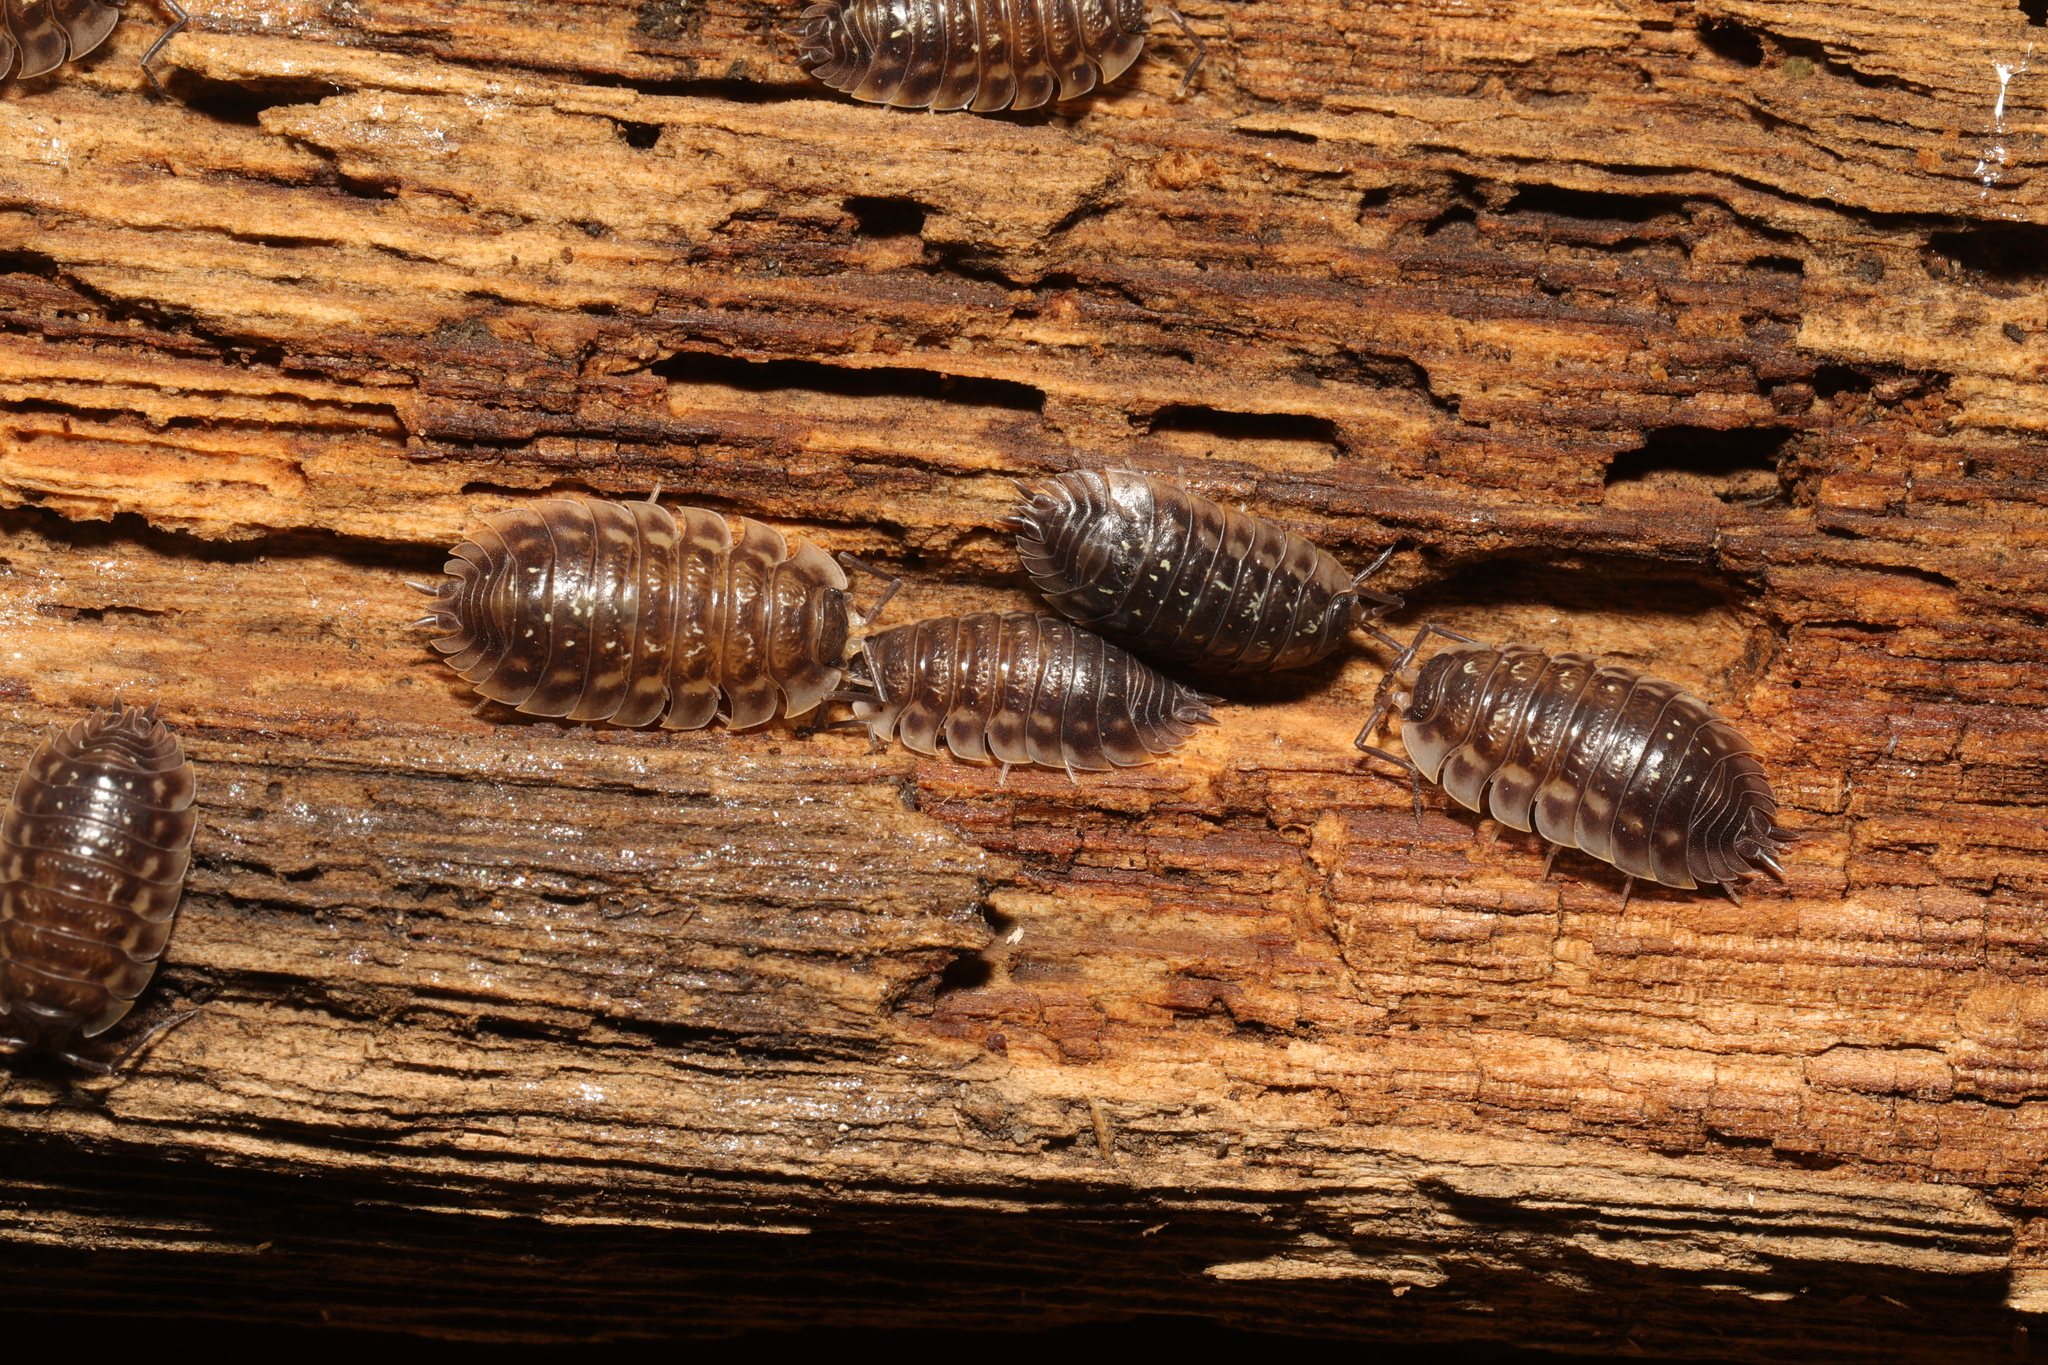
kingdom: Animalia
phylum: Arthropoda
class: Malacostraca
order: Isopoda
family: Oniscidae
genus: Oniscus
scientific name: Oniscus asellus
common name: Common shiny woodlouse
